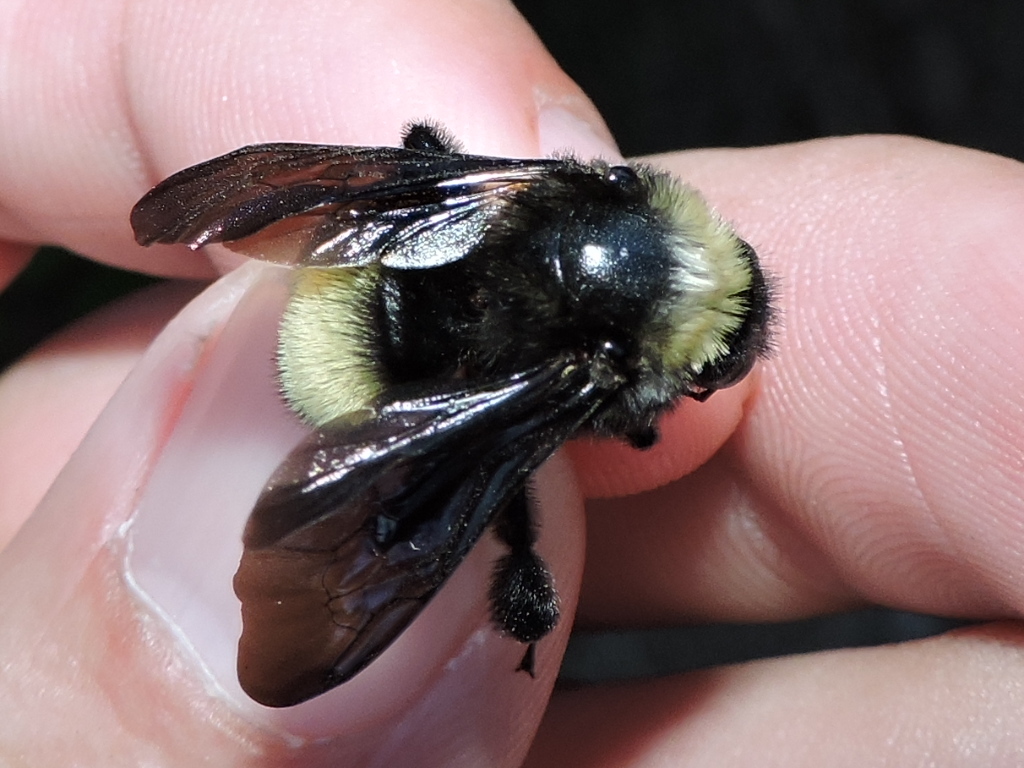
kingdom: Animalia
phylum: Arthropoda
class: Insecta
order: Hymenoptera
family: Apidae
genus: Bombus
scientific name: Bombus pensylvanicus
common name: Bumble bee
